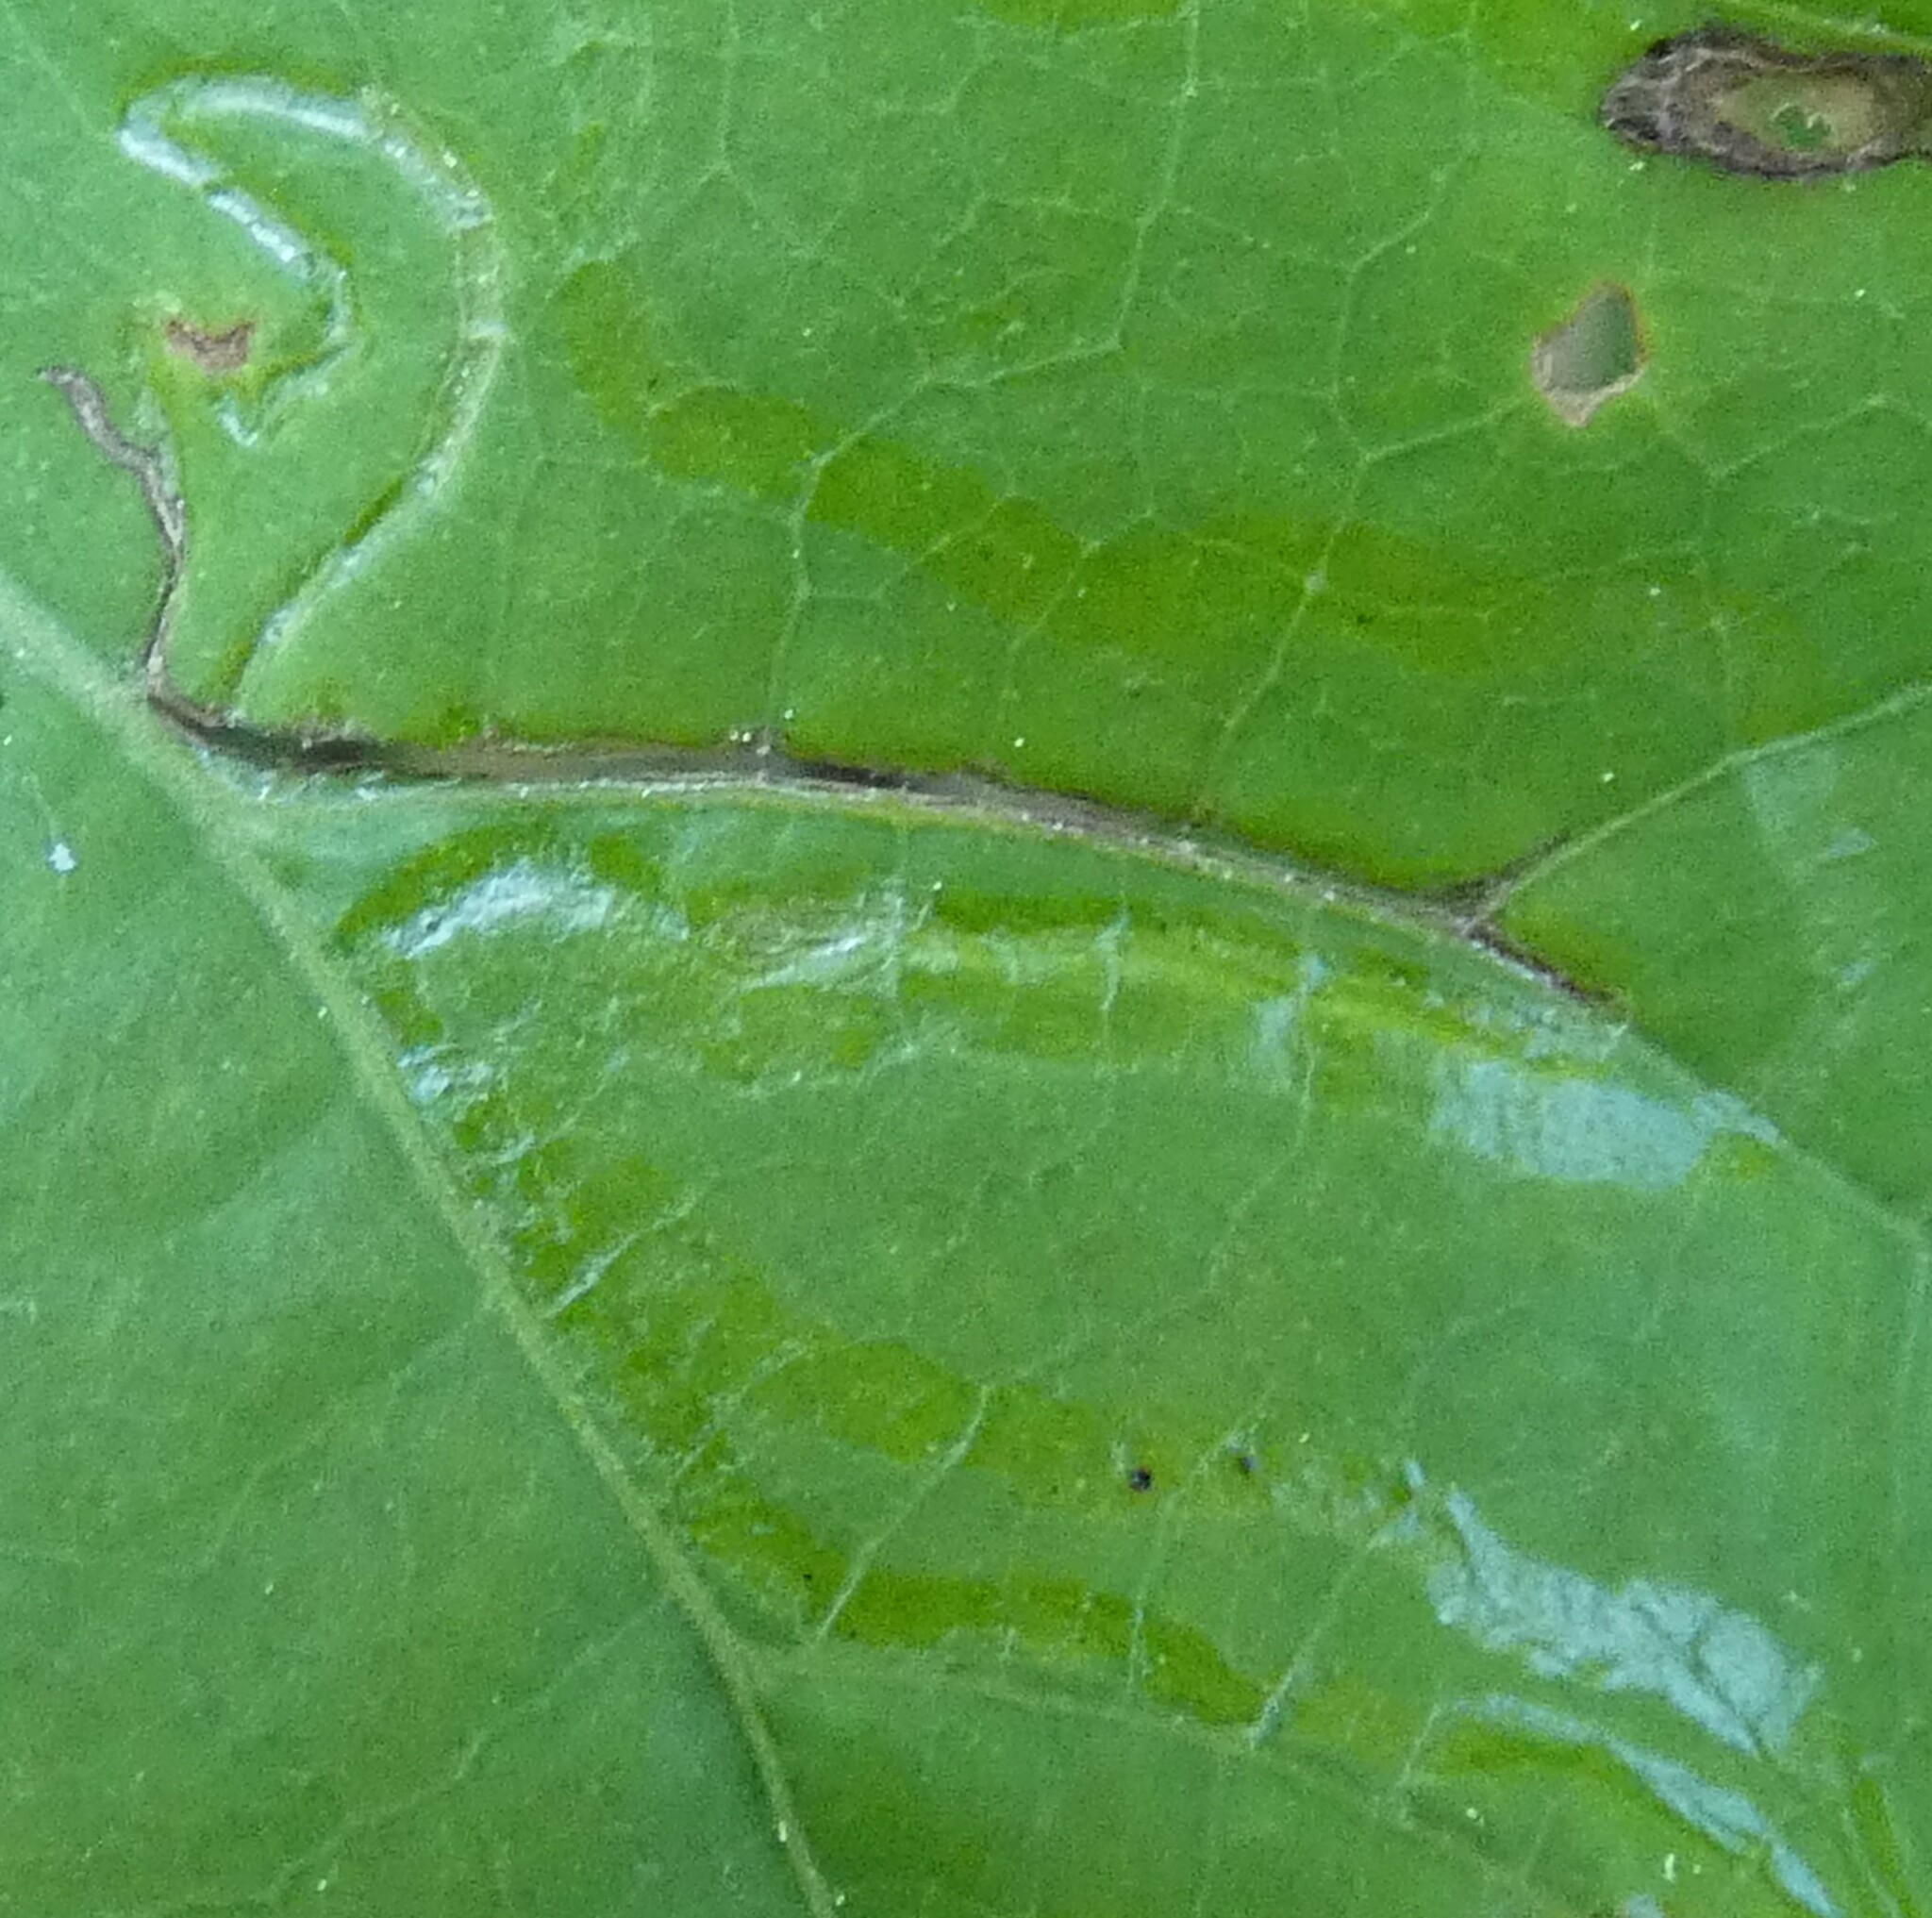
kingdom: Animalia
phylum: Arthropoda
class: Insecta
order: Lepidoptera
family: Gracillariidae
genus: Phyllocnistis
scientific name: Phyllocnistis vitegenella
